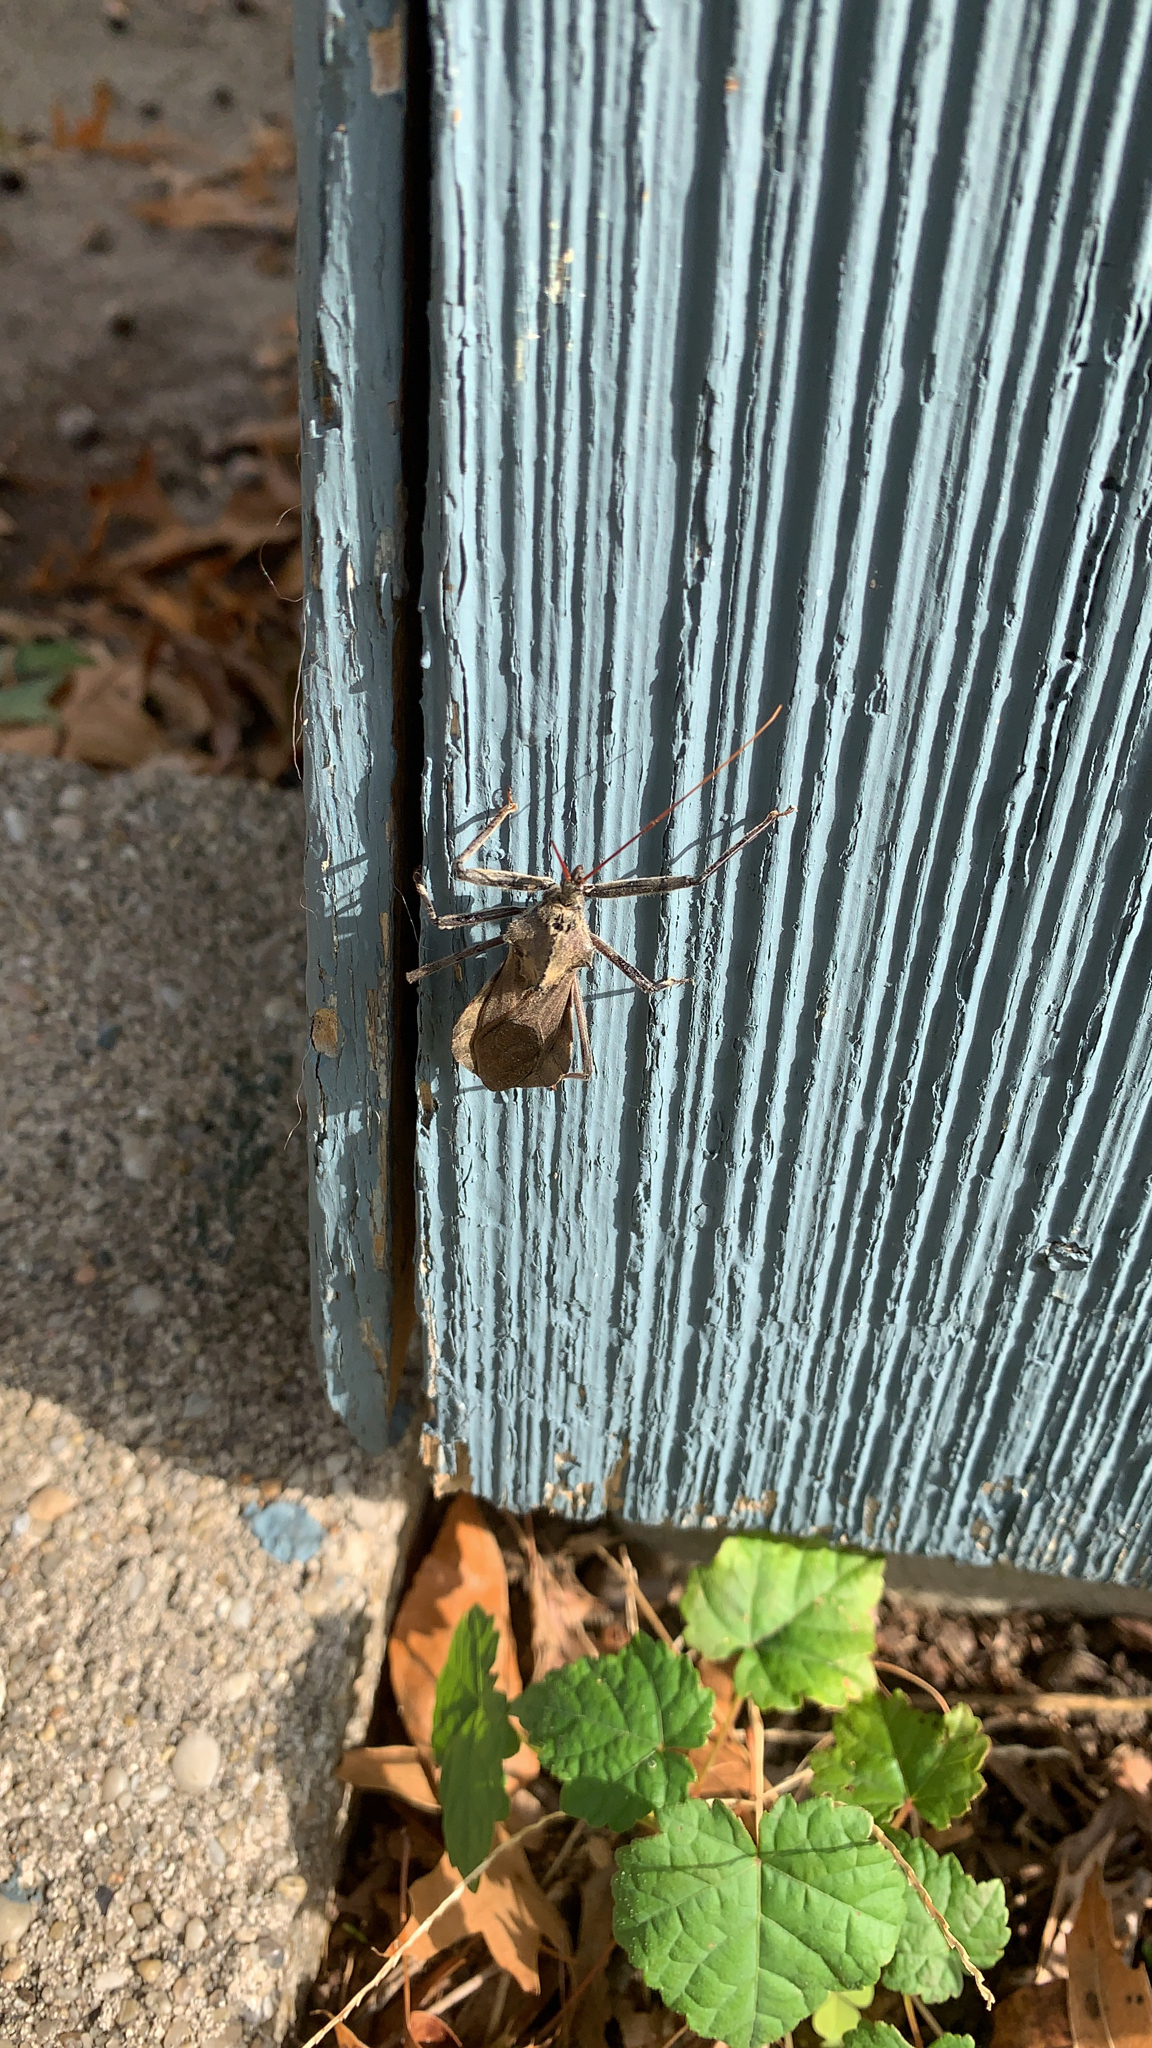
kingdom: Animalia
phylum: Arthropoda
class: Insecta
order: Hemiptera
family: Reduviidae
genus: Arilus
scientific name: Arilus cristatus
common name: North american wheel bug
